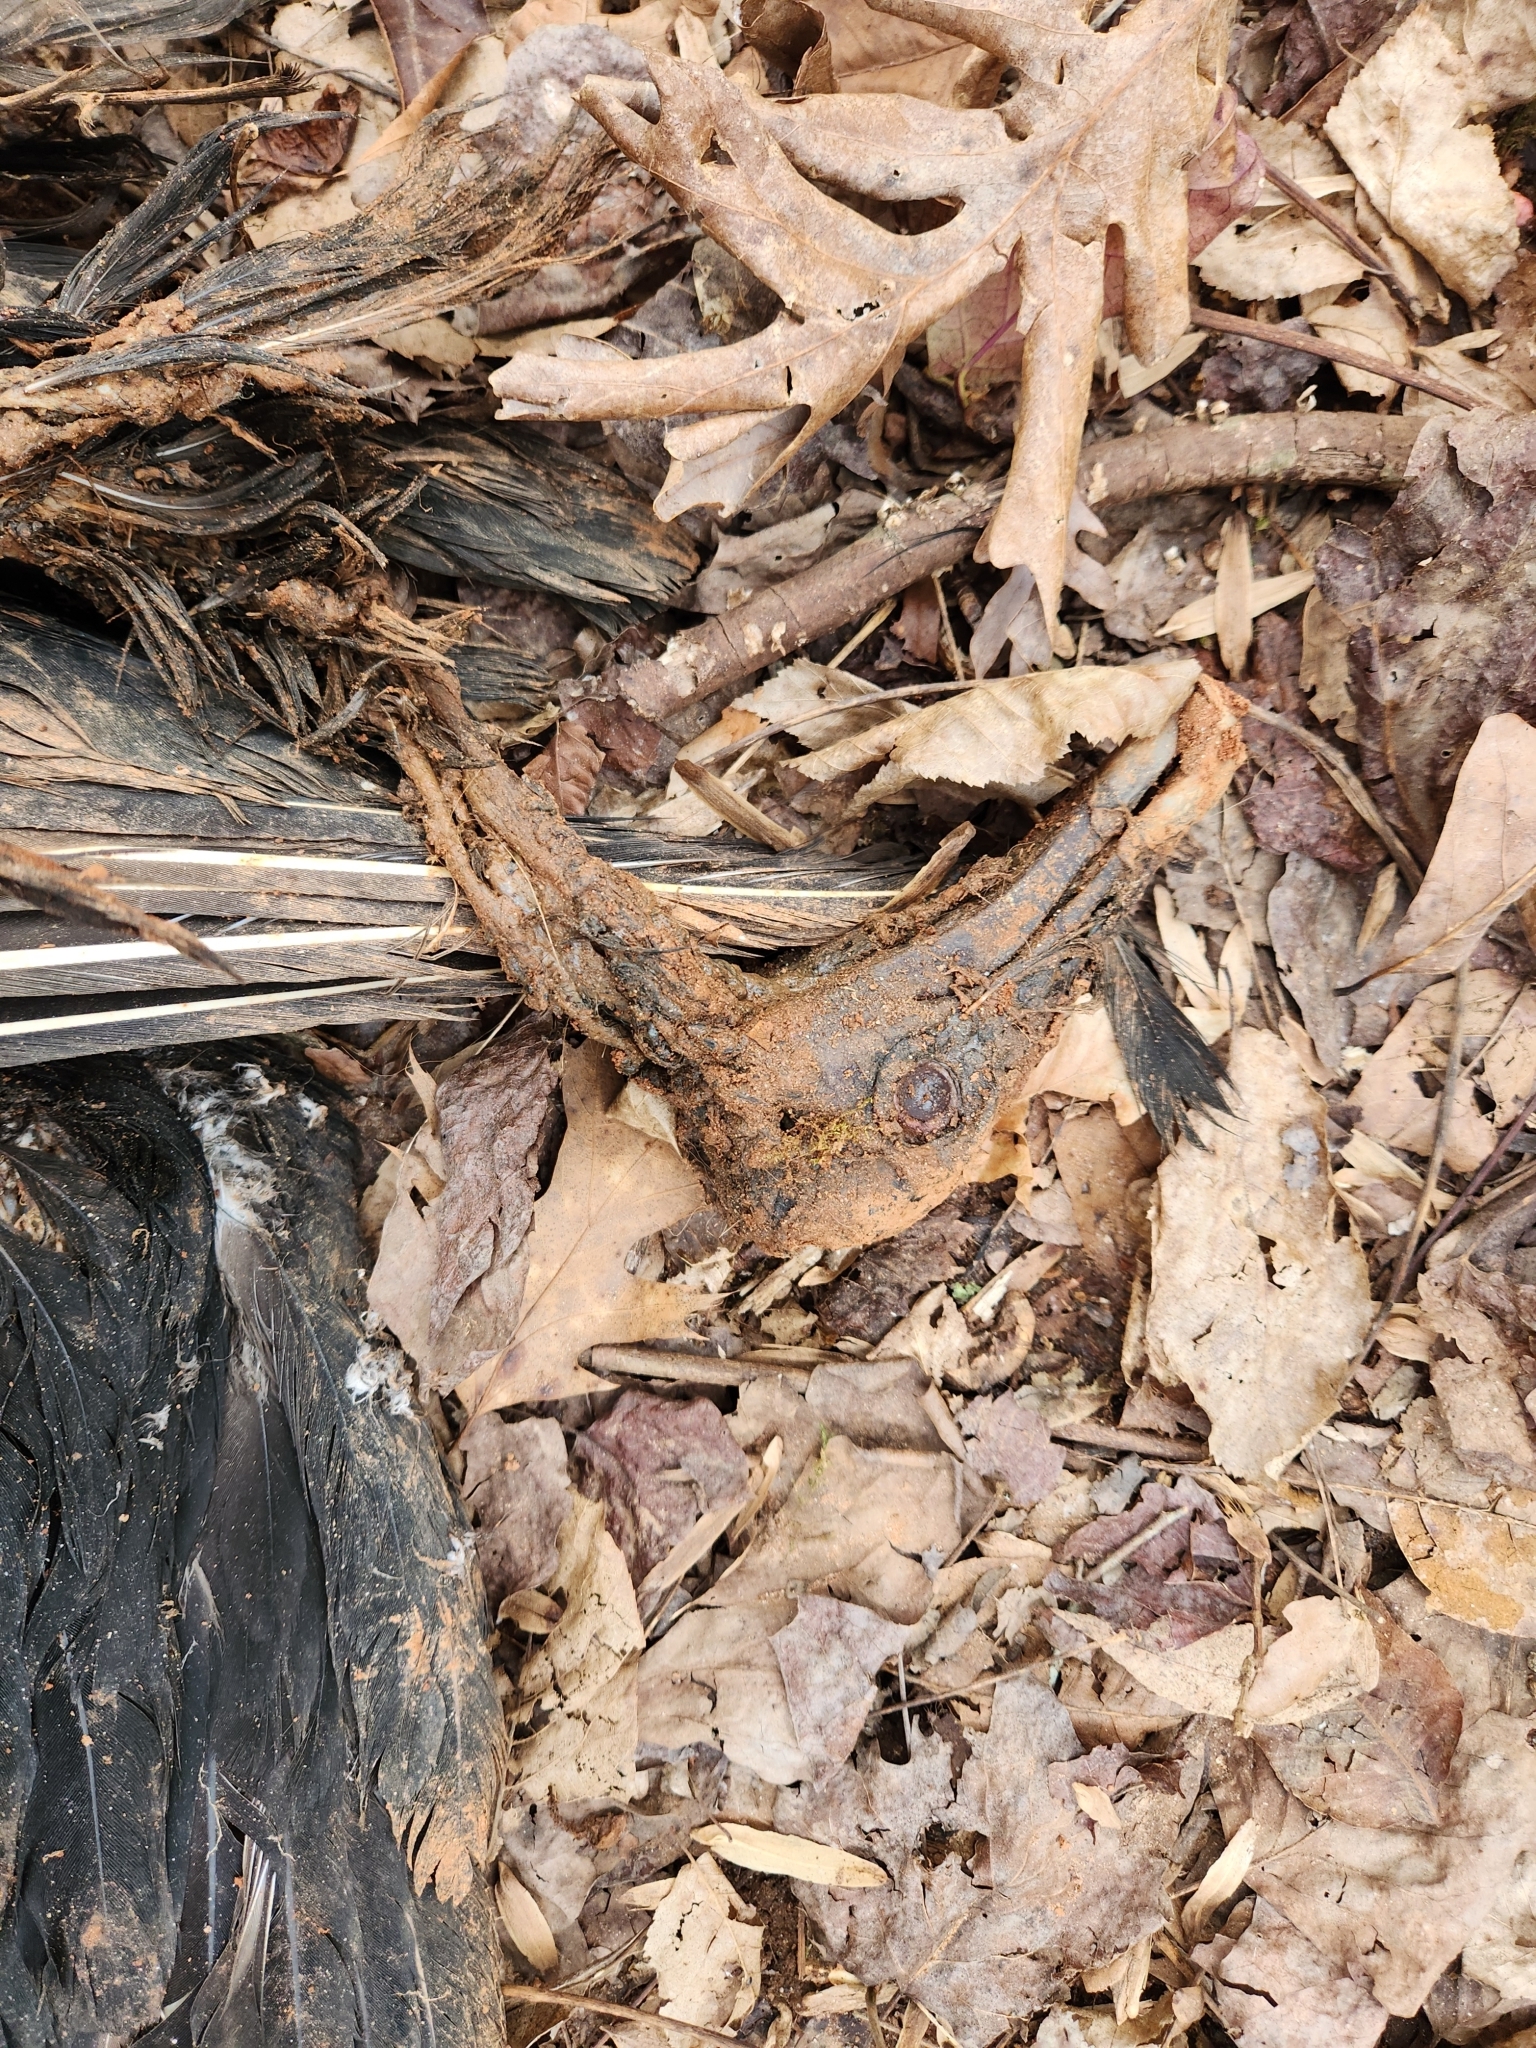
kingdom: Animalia
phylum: Chordata
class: Aves
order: Accipitriformes
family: Cathartidae
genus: Coragyps
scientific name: Coragyps atratus
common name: Black vulture
